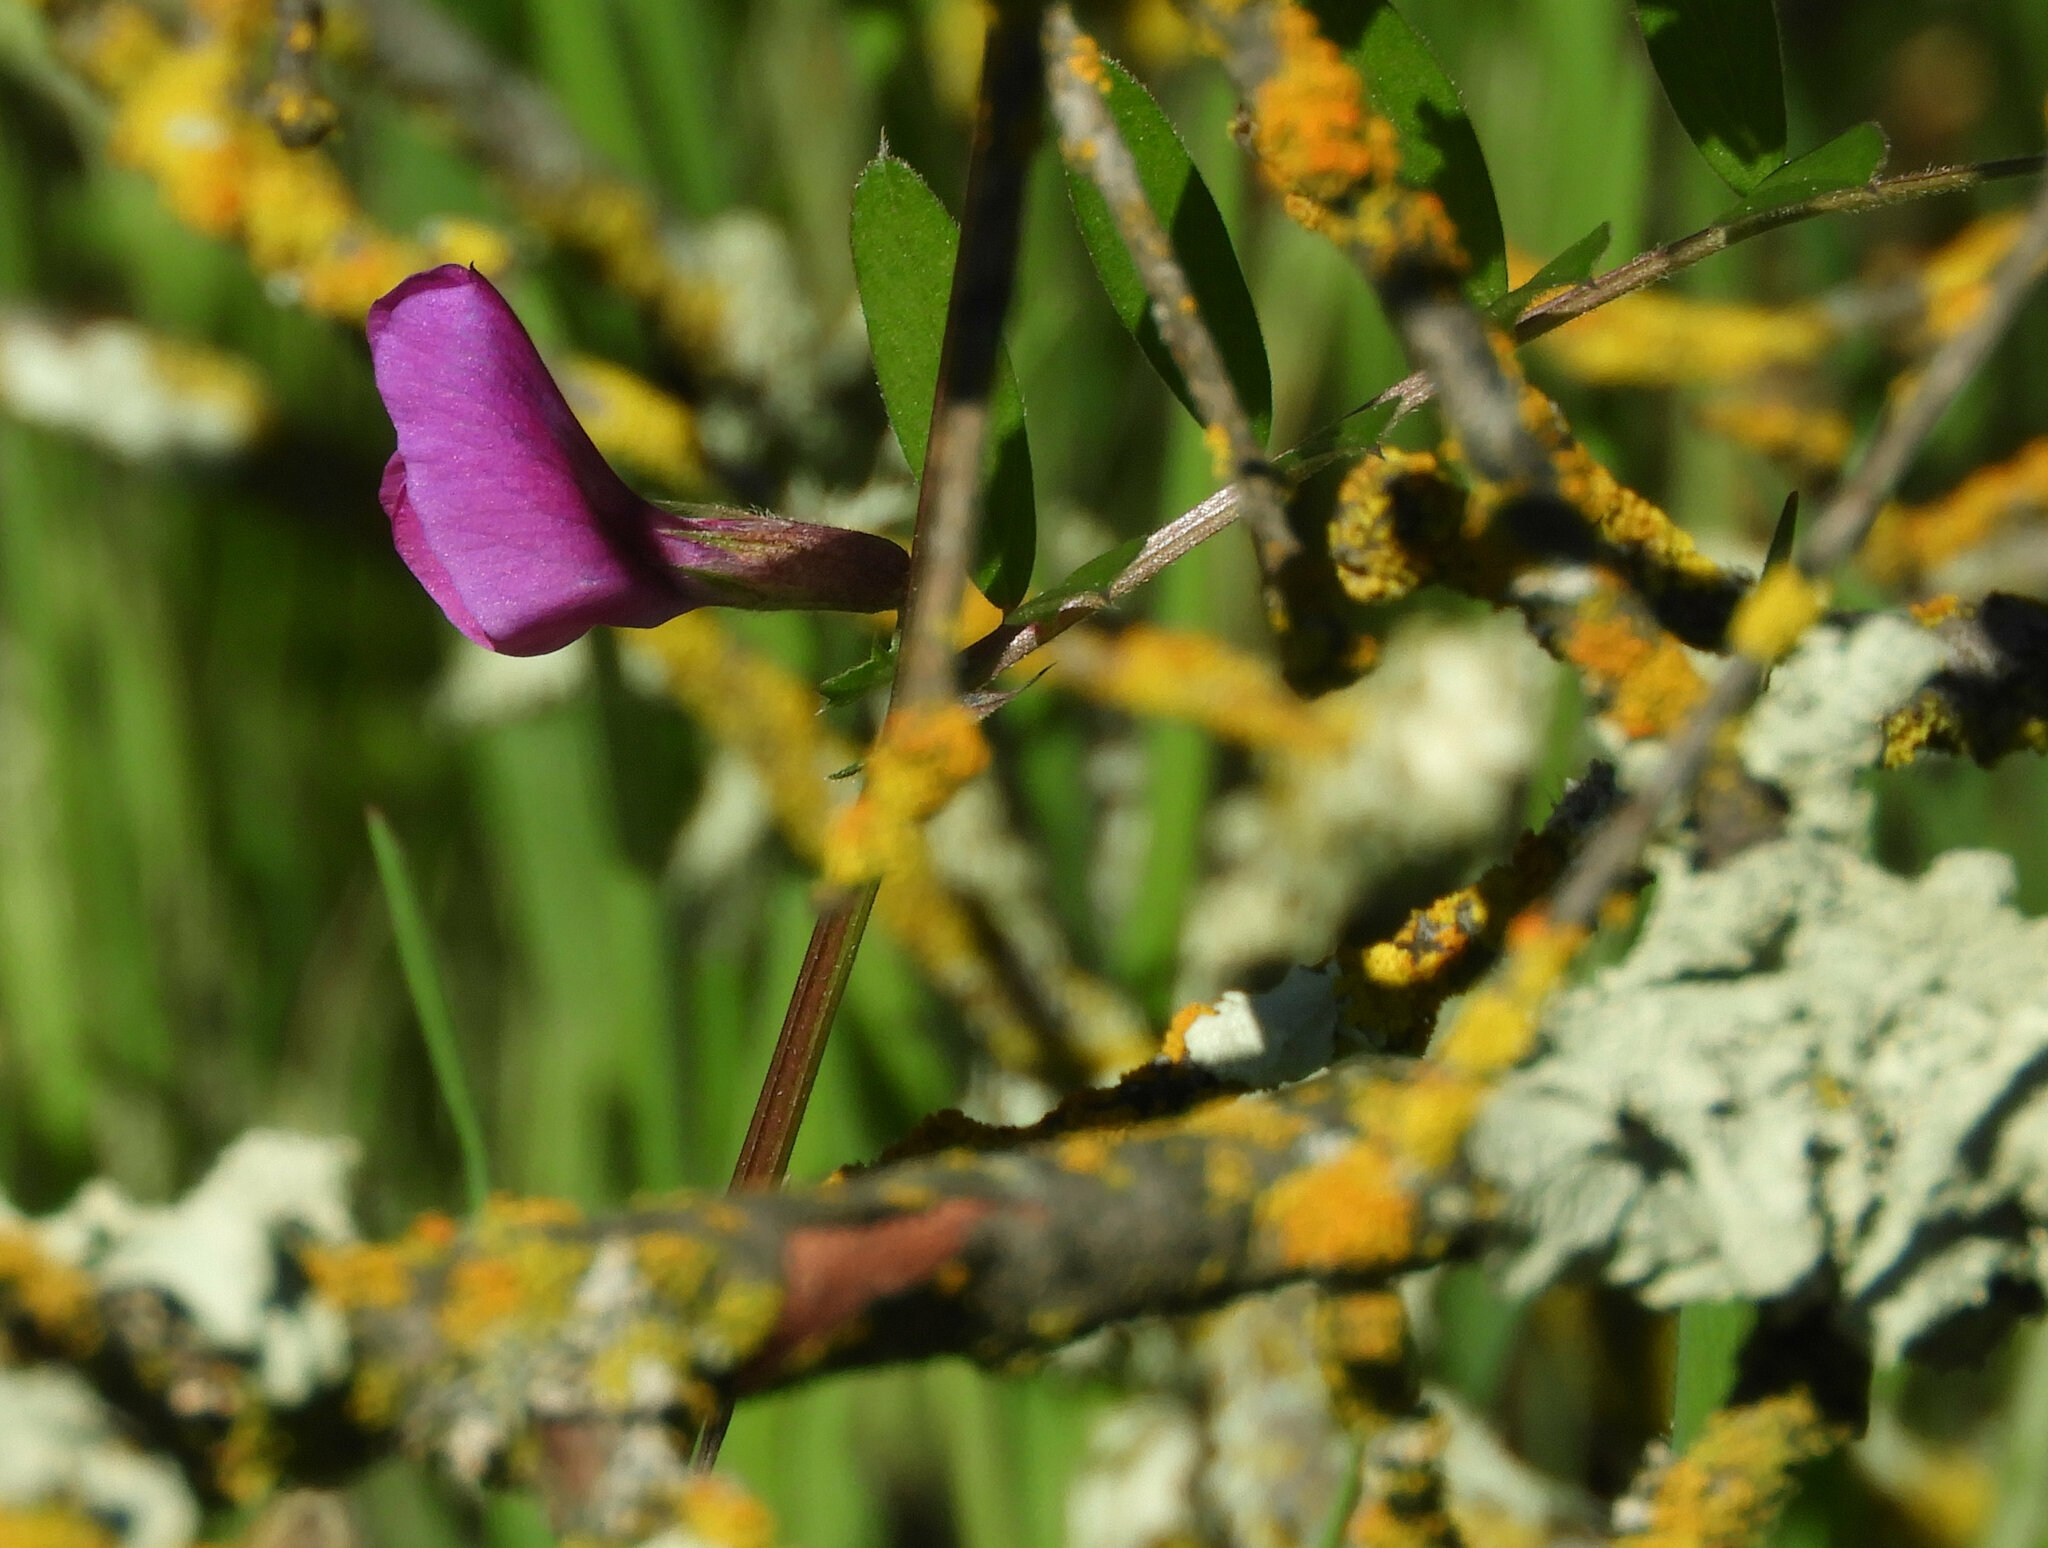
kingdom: Plantae
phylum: Tracheophyta
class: Magnoliopsida
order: Fabales
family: Fabaceae
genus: Vicia
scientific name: Vicia sativa
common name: Garden vetch
